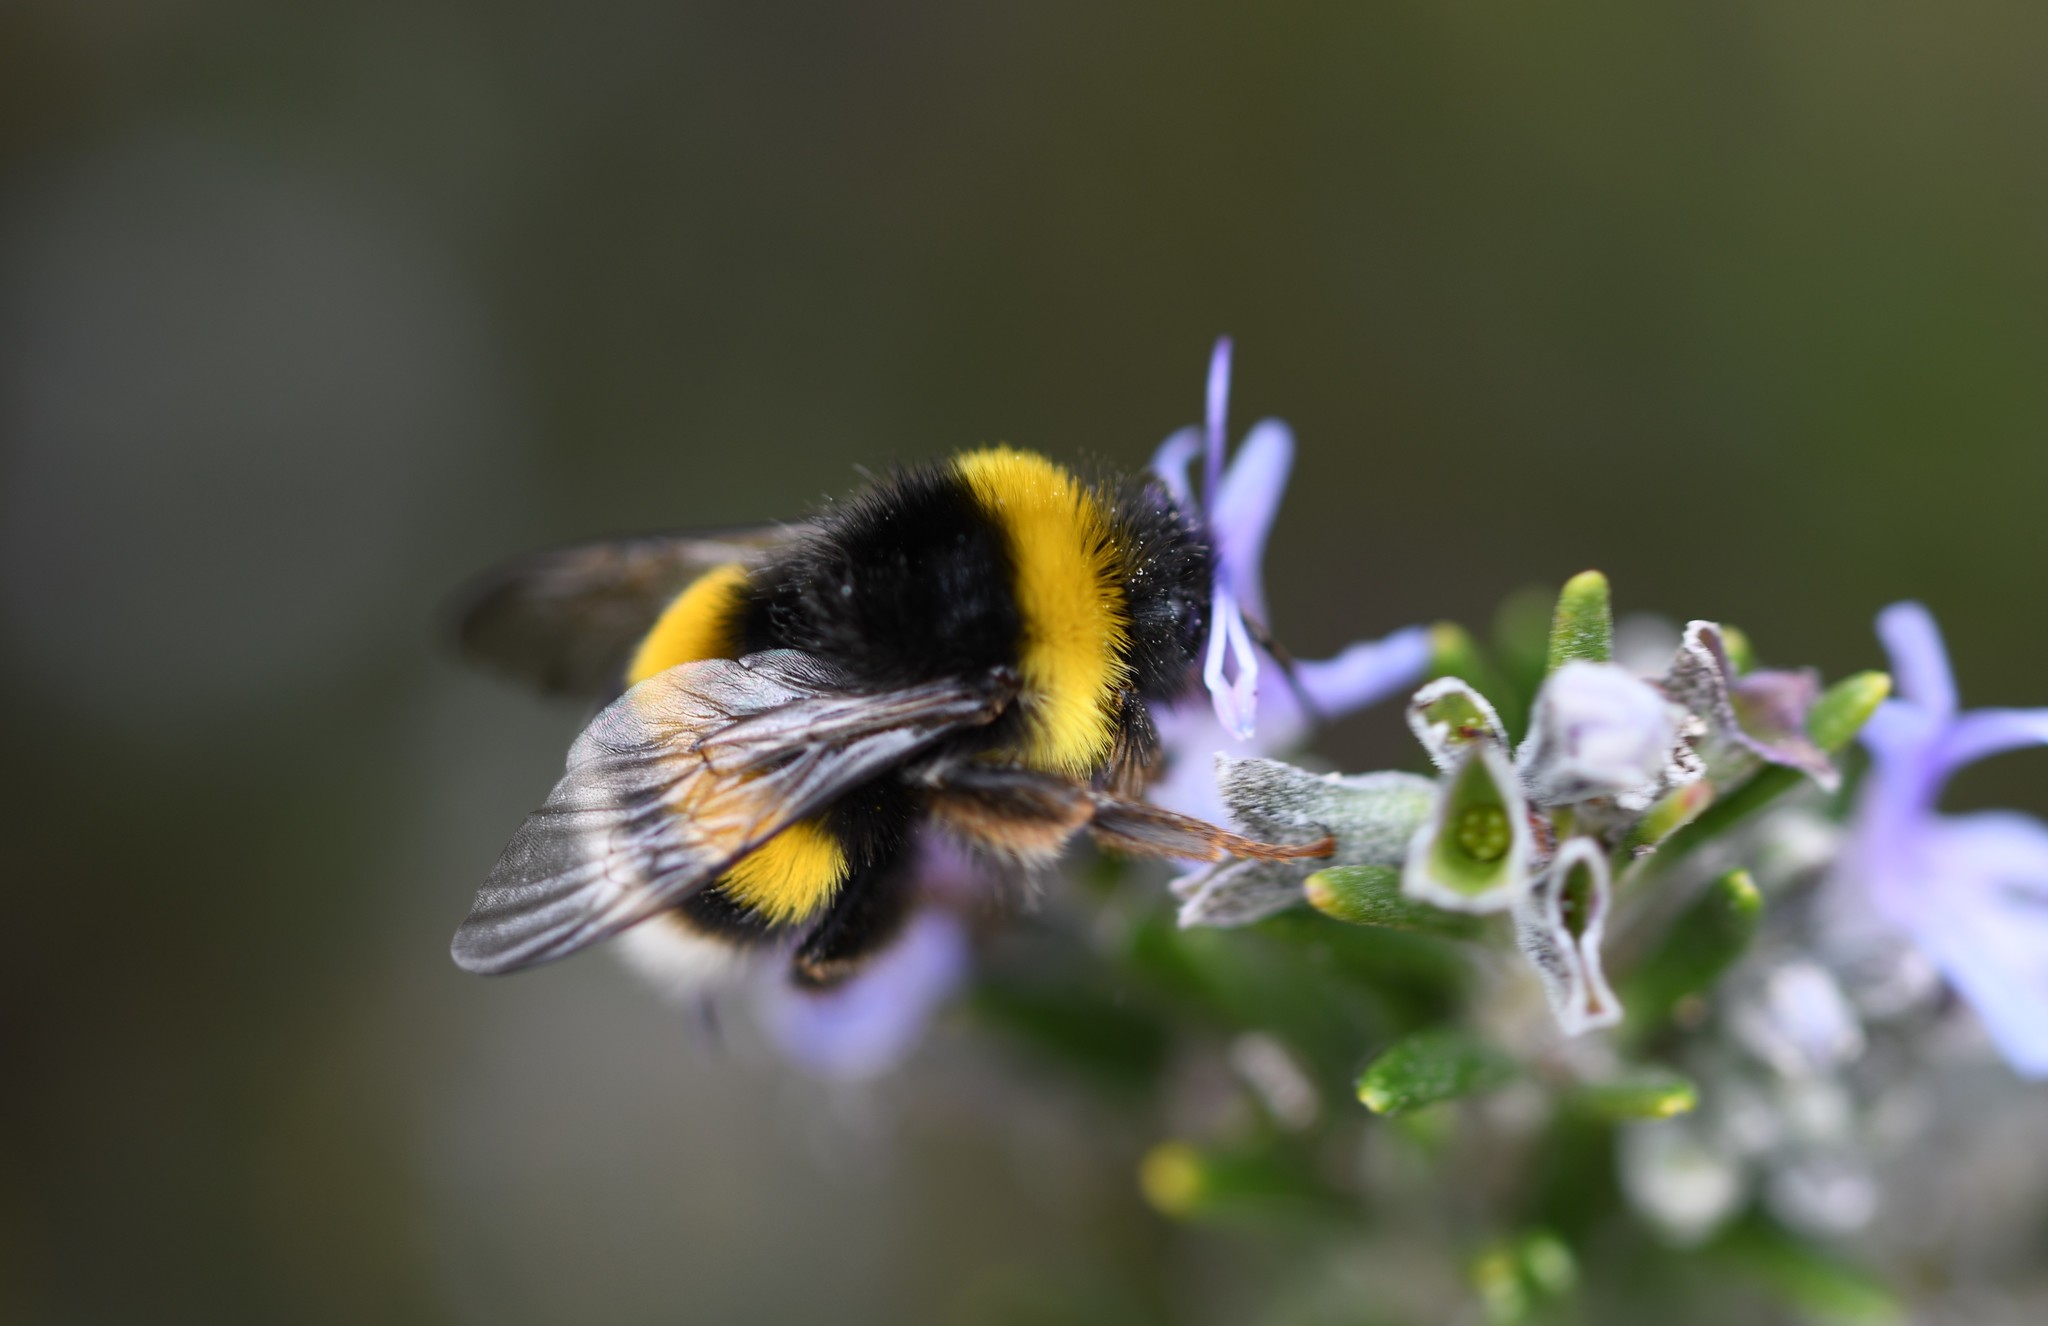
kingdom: Animalia
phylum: Arthropoda
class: Insecta
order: Hymenoptera
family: Apidae
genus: Bombus
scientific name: Bombus terrestris
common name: Buff-tailed bumblebee
